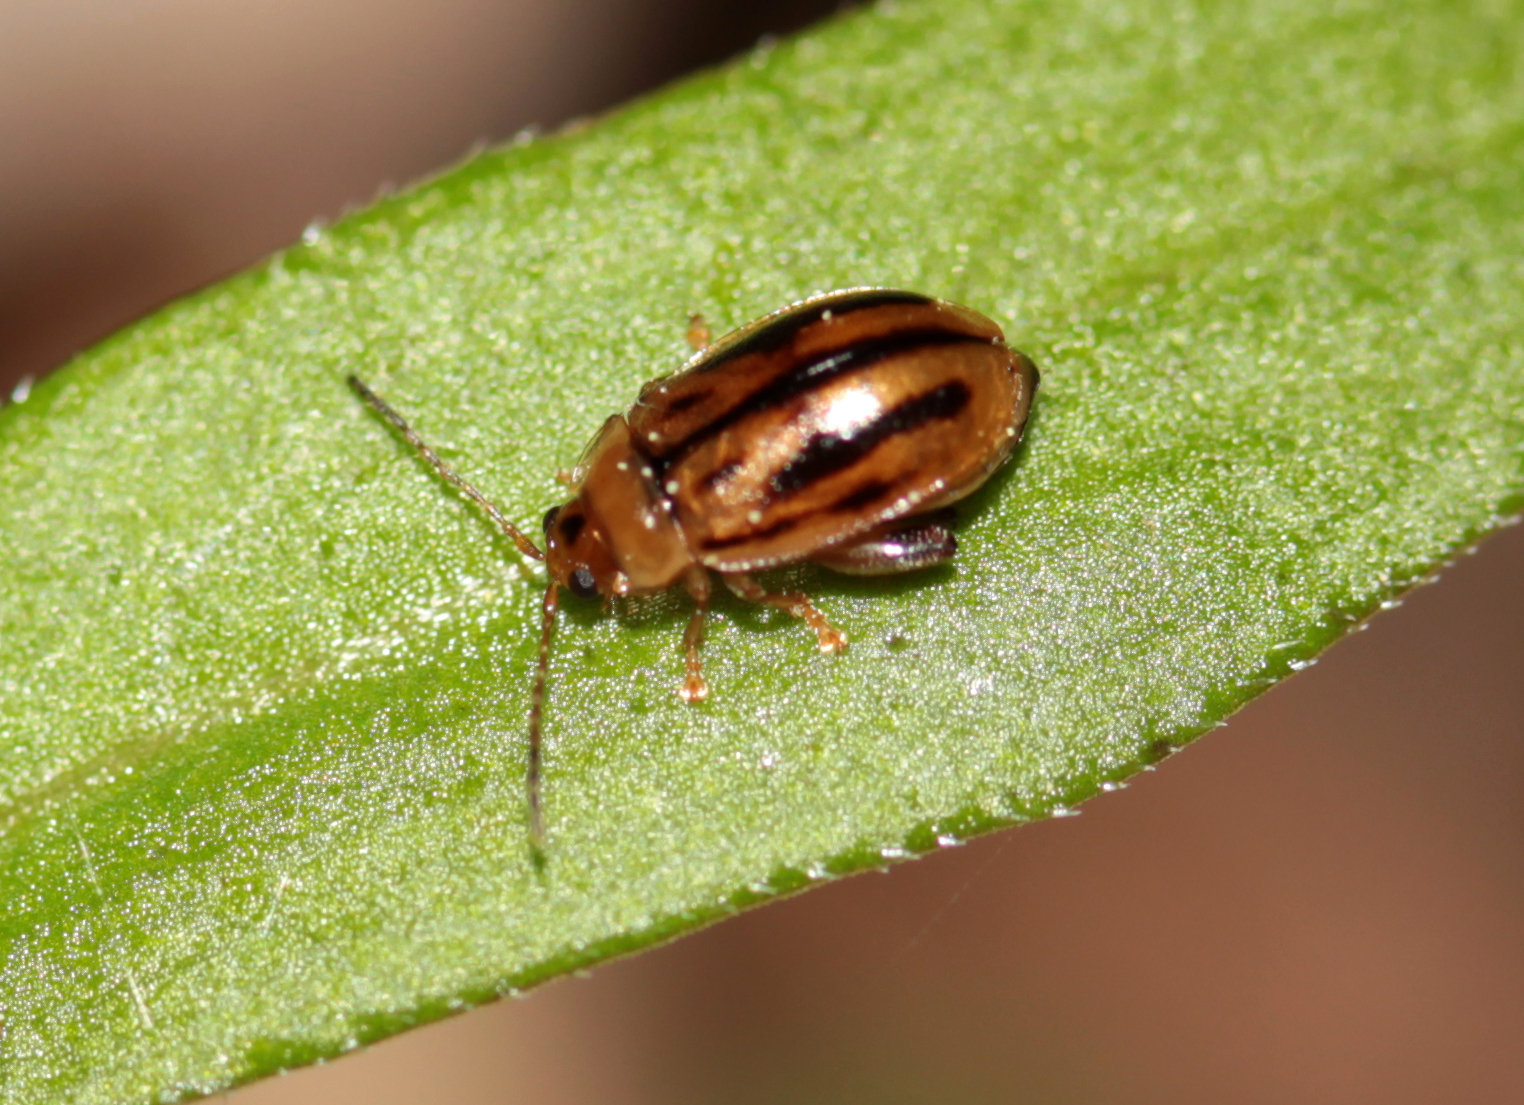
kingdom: Animalia
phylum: Arthropoda
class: Insecta
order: Coleoptera
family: Chrysomelidae
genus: Capraita
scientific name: Capraita subvittata
